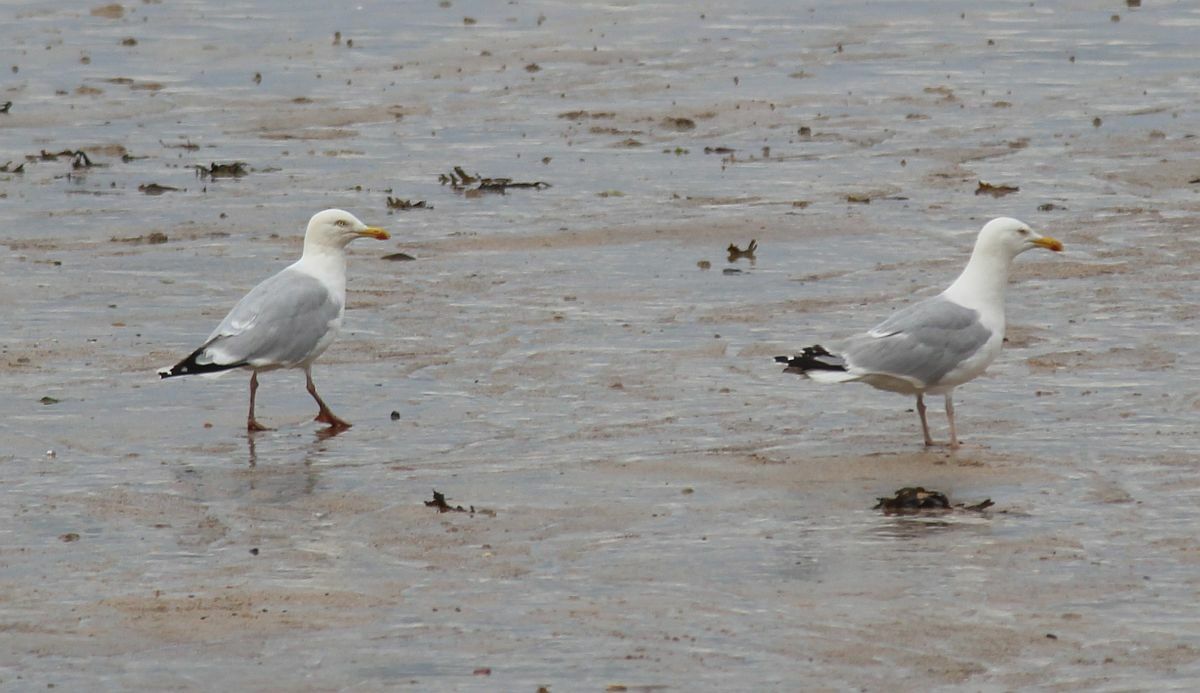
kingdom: Animalia
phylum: Chordata
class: Aves
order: Charadriiformes
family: Laridae
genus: Larus
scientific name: Larus argentatus
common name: Herring gull
